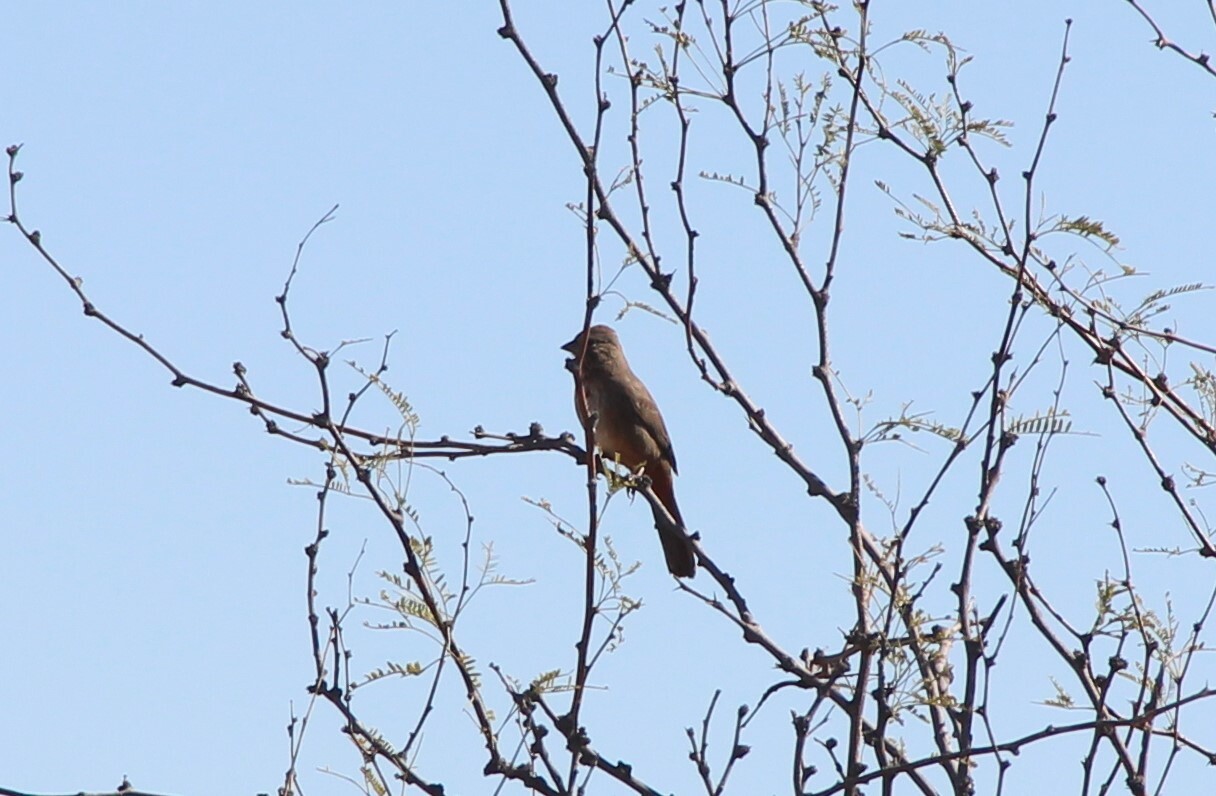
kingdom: Animalia
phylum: Chordata
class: Aves
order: Passeriformes
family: Passerellidae
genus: Melozone
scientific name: Melozone fusca
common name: Canyon towhee
